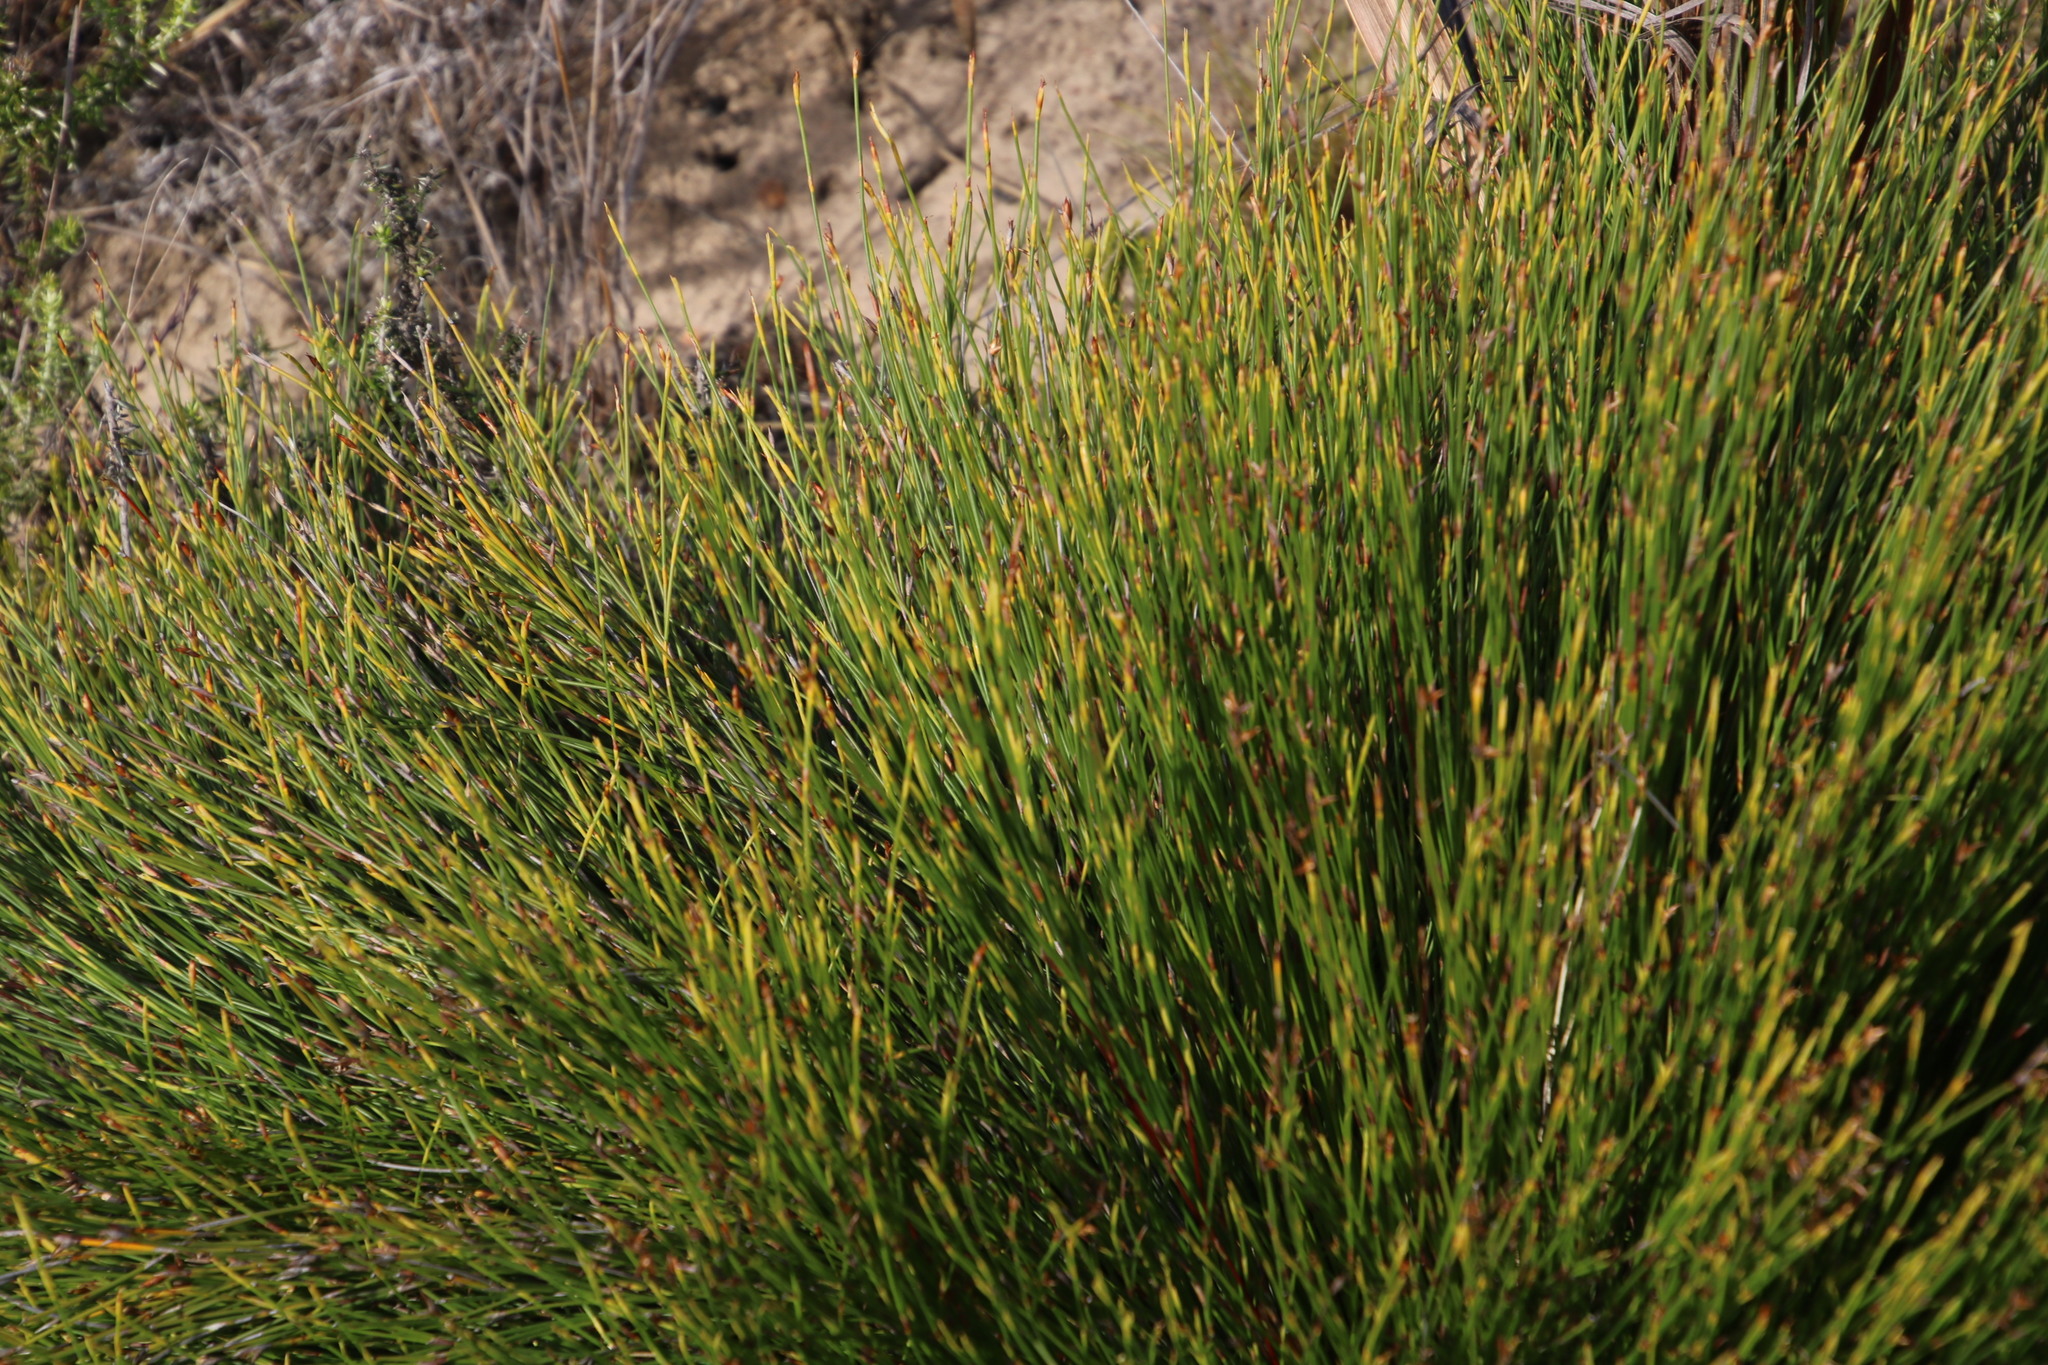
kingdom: Plantae
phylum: Tracheophyta
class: Liliopsida
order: Poales
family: Restionaceae
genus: Mastersiella
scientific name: Mastersiella digitata
